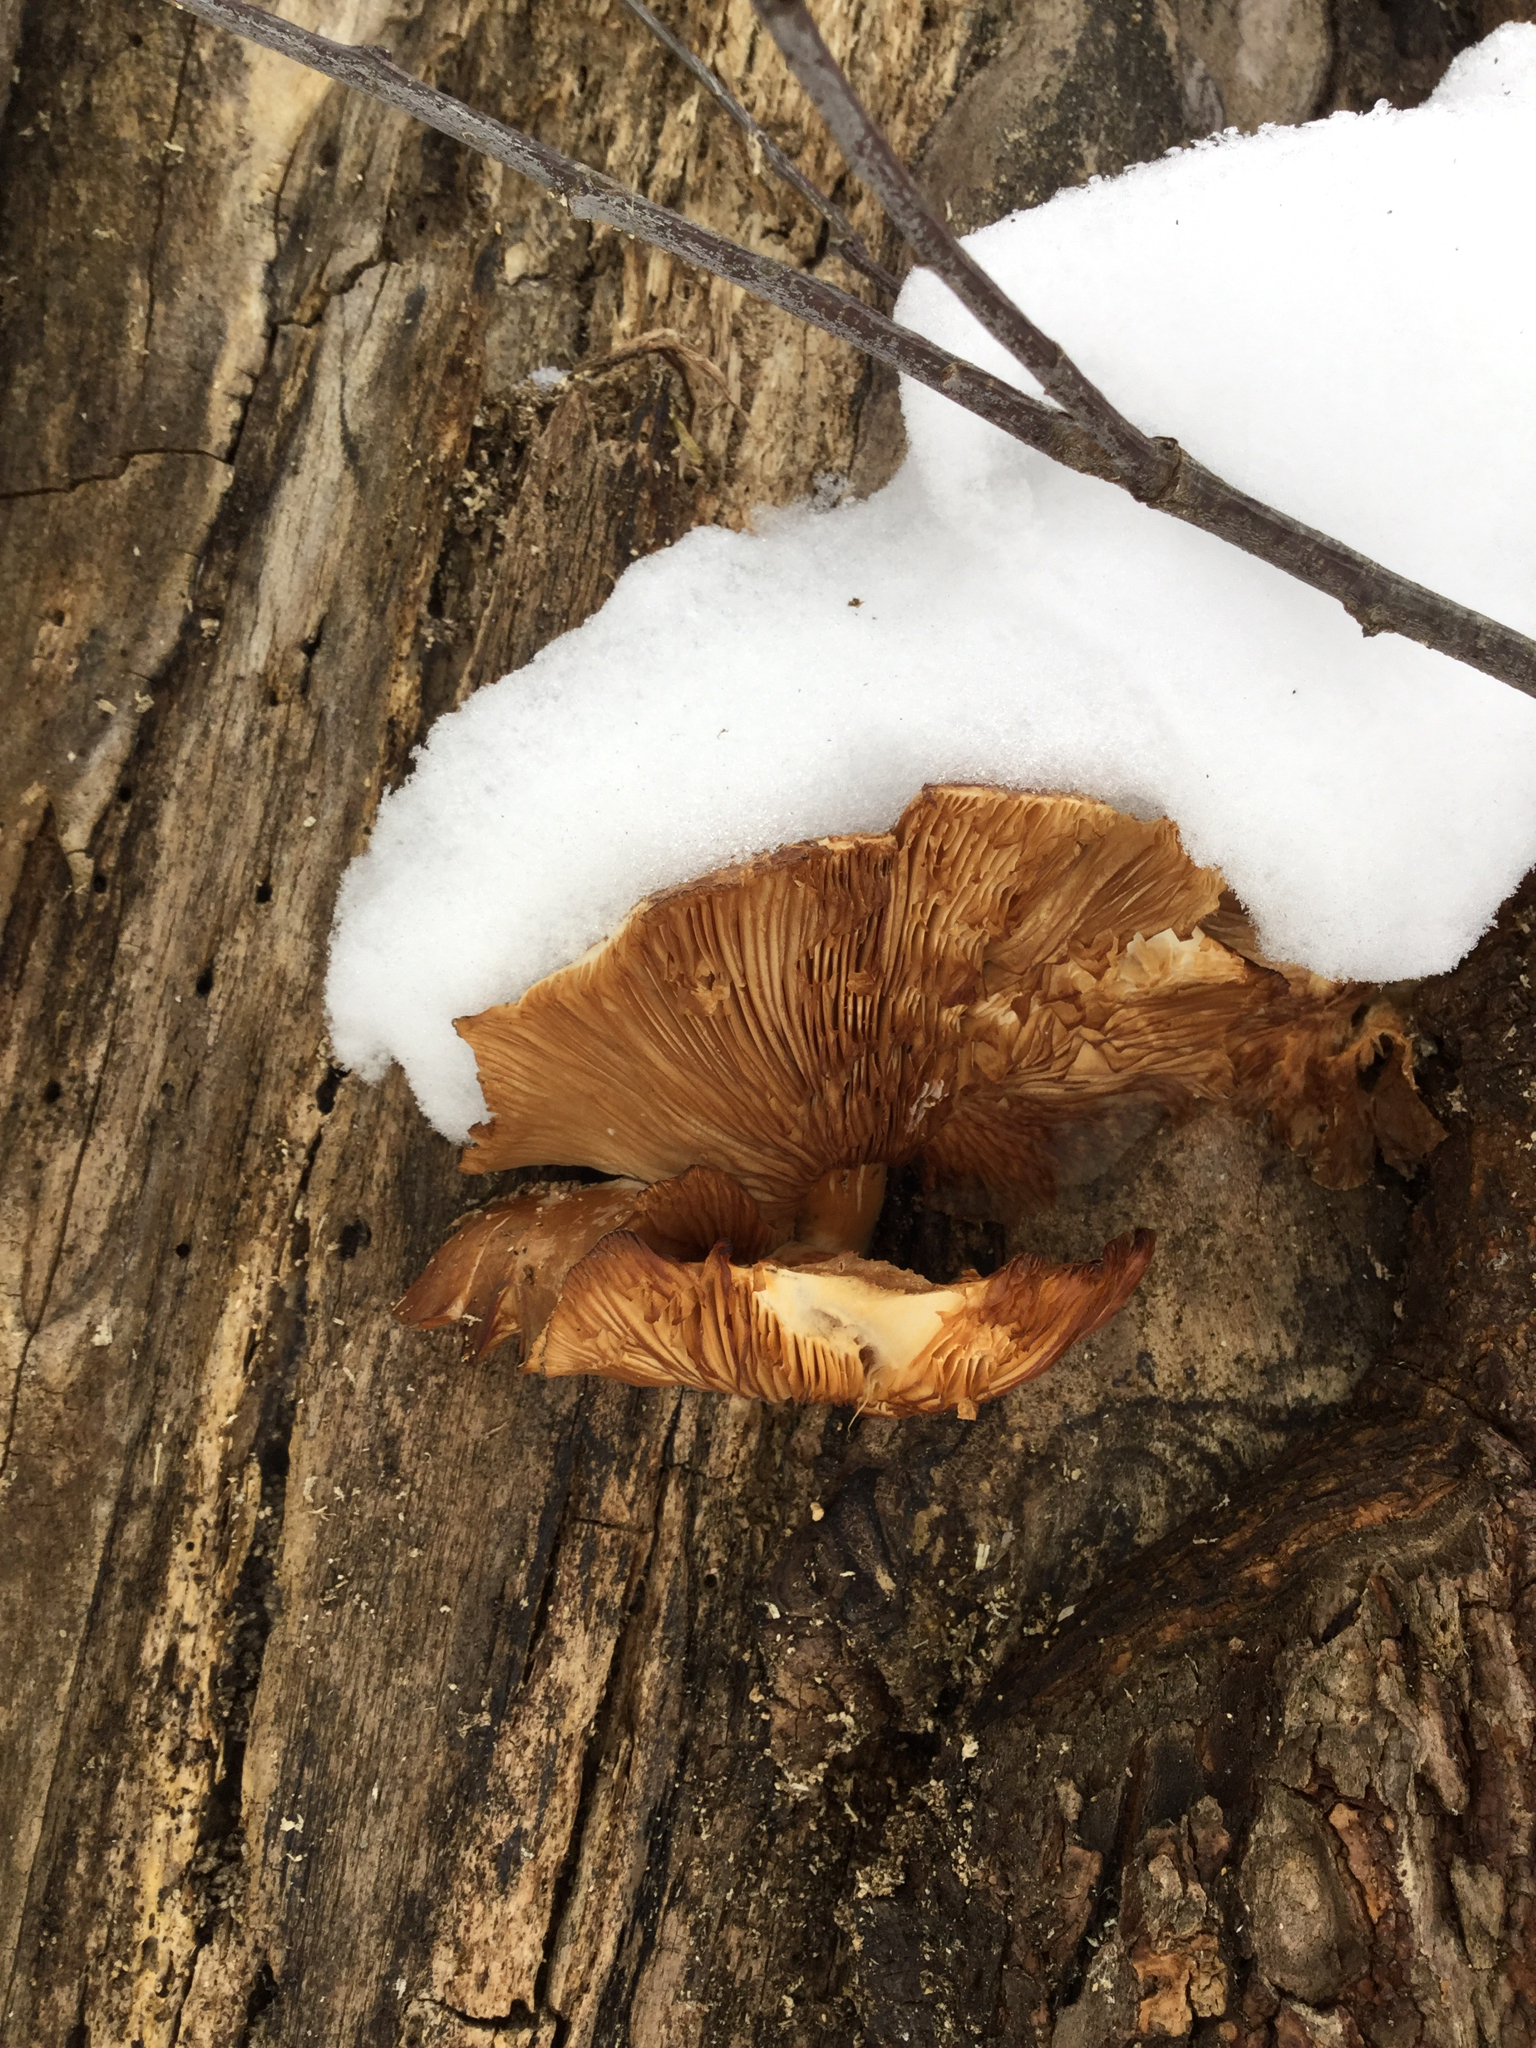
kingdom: Fungi
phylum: Basidiomycota
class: Agaricomycetes
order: Agaricales
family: Lyophyllaceae
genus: Hypsizygus
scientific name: Hypsizygus tessulatus
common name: Beech mushroom
